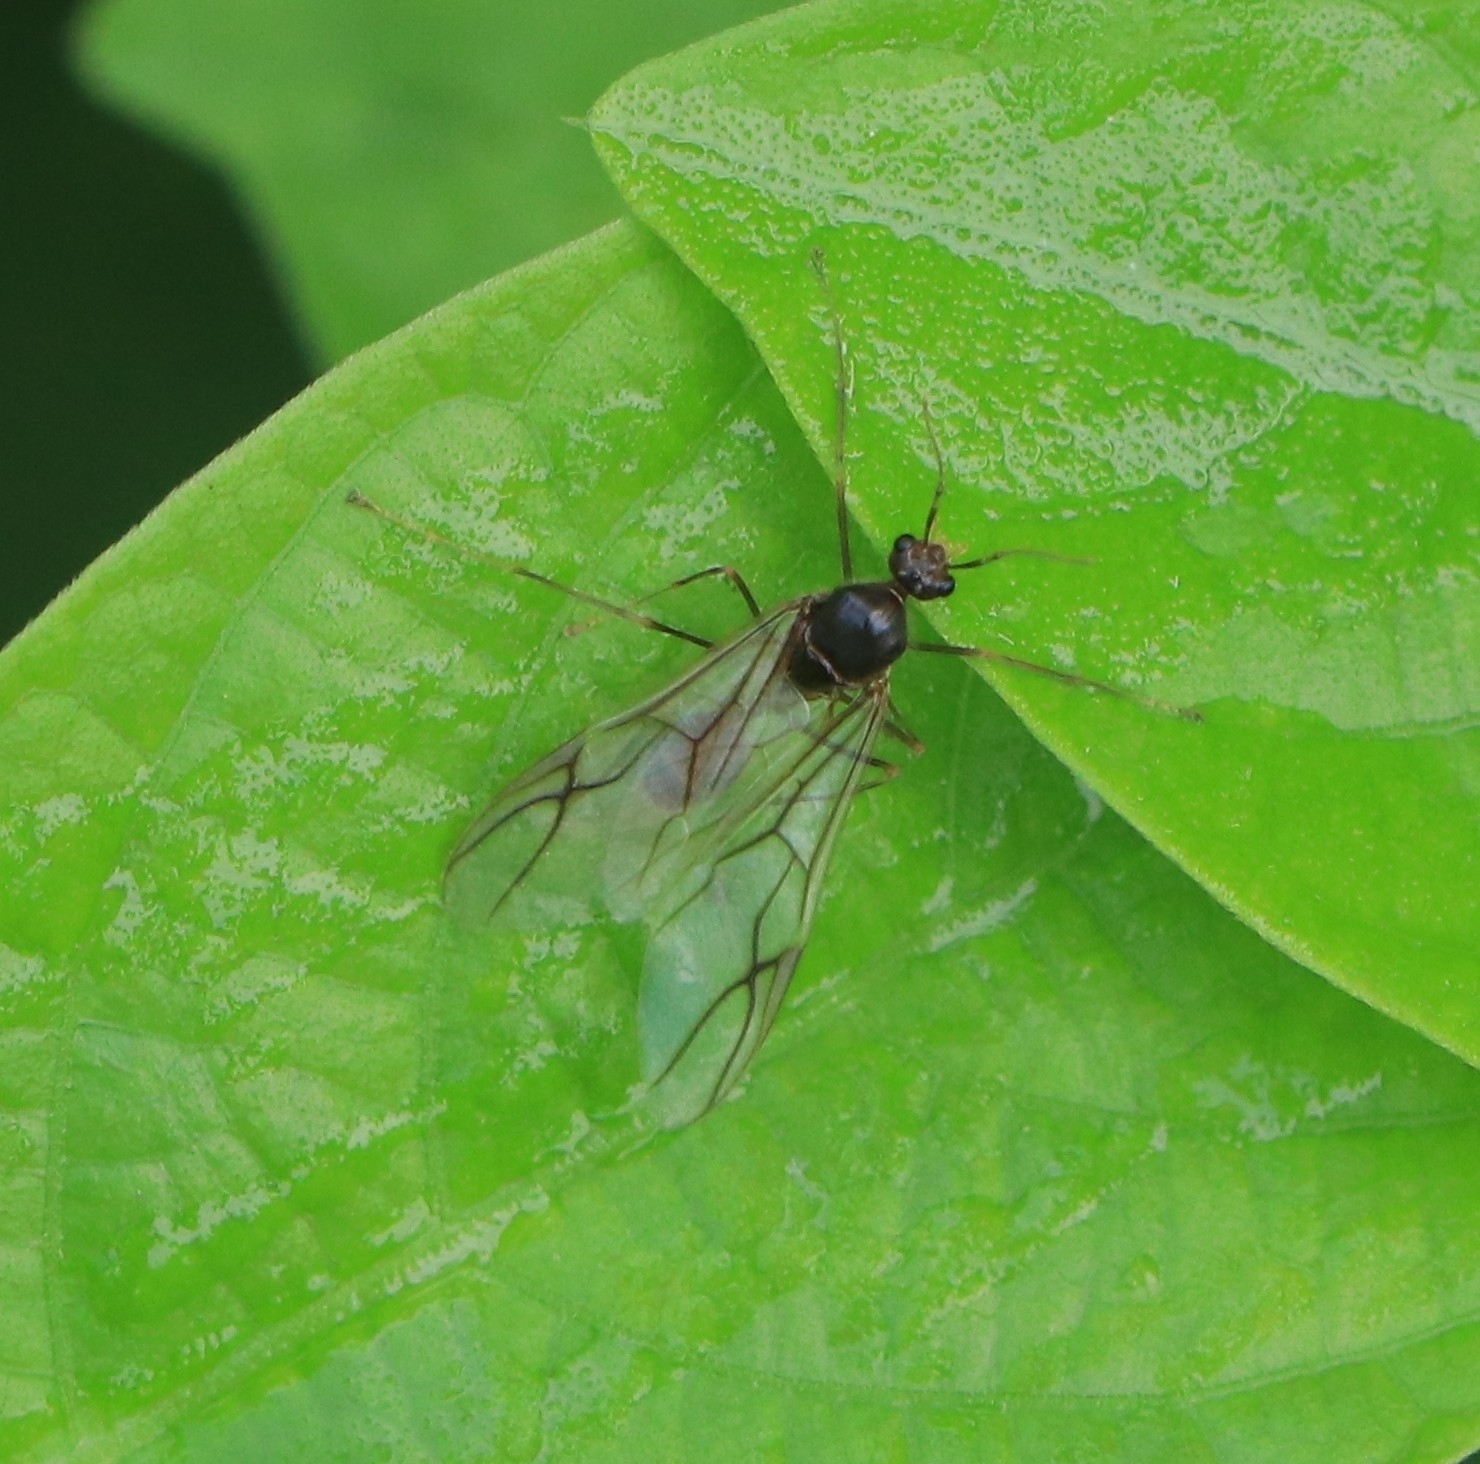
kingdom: Animalia
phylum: Arthropoda
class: Insecta
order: Hymenoptera
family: Formicidae
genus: Oecophylla
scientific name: Oecophylla smaragdina
